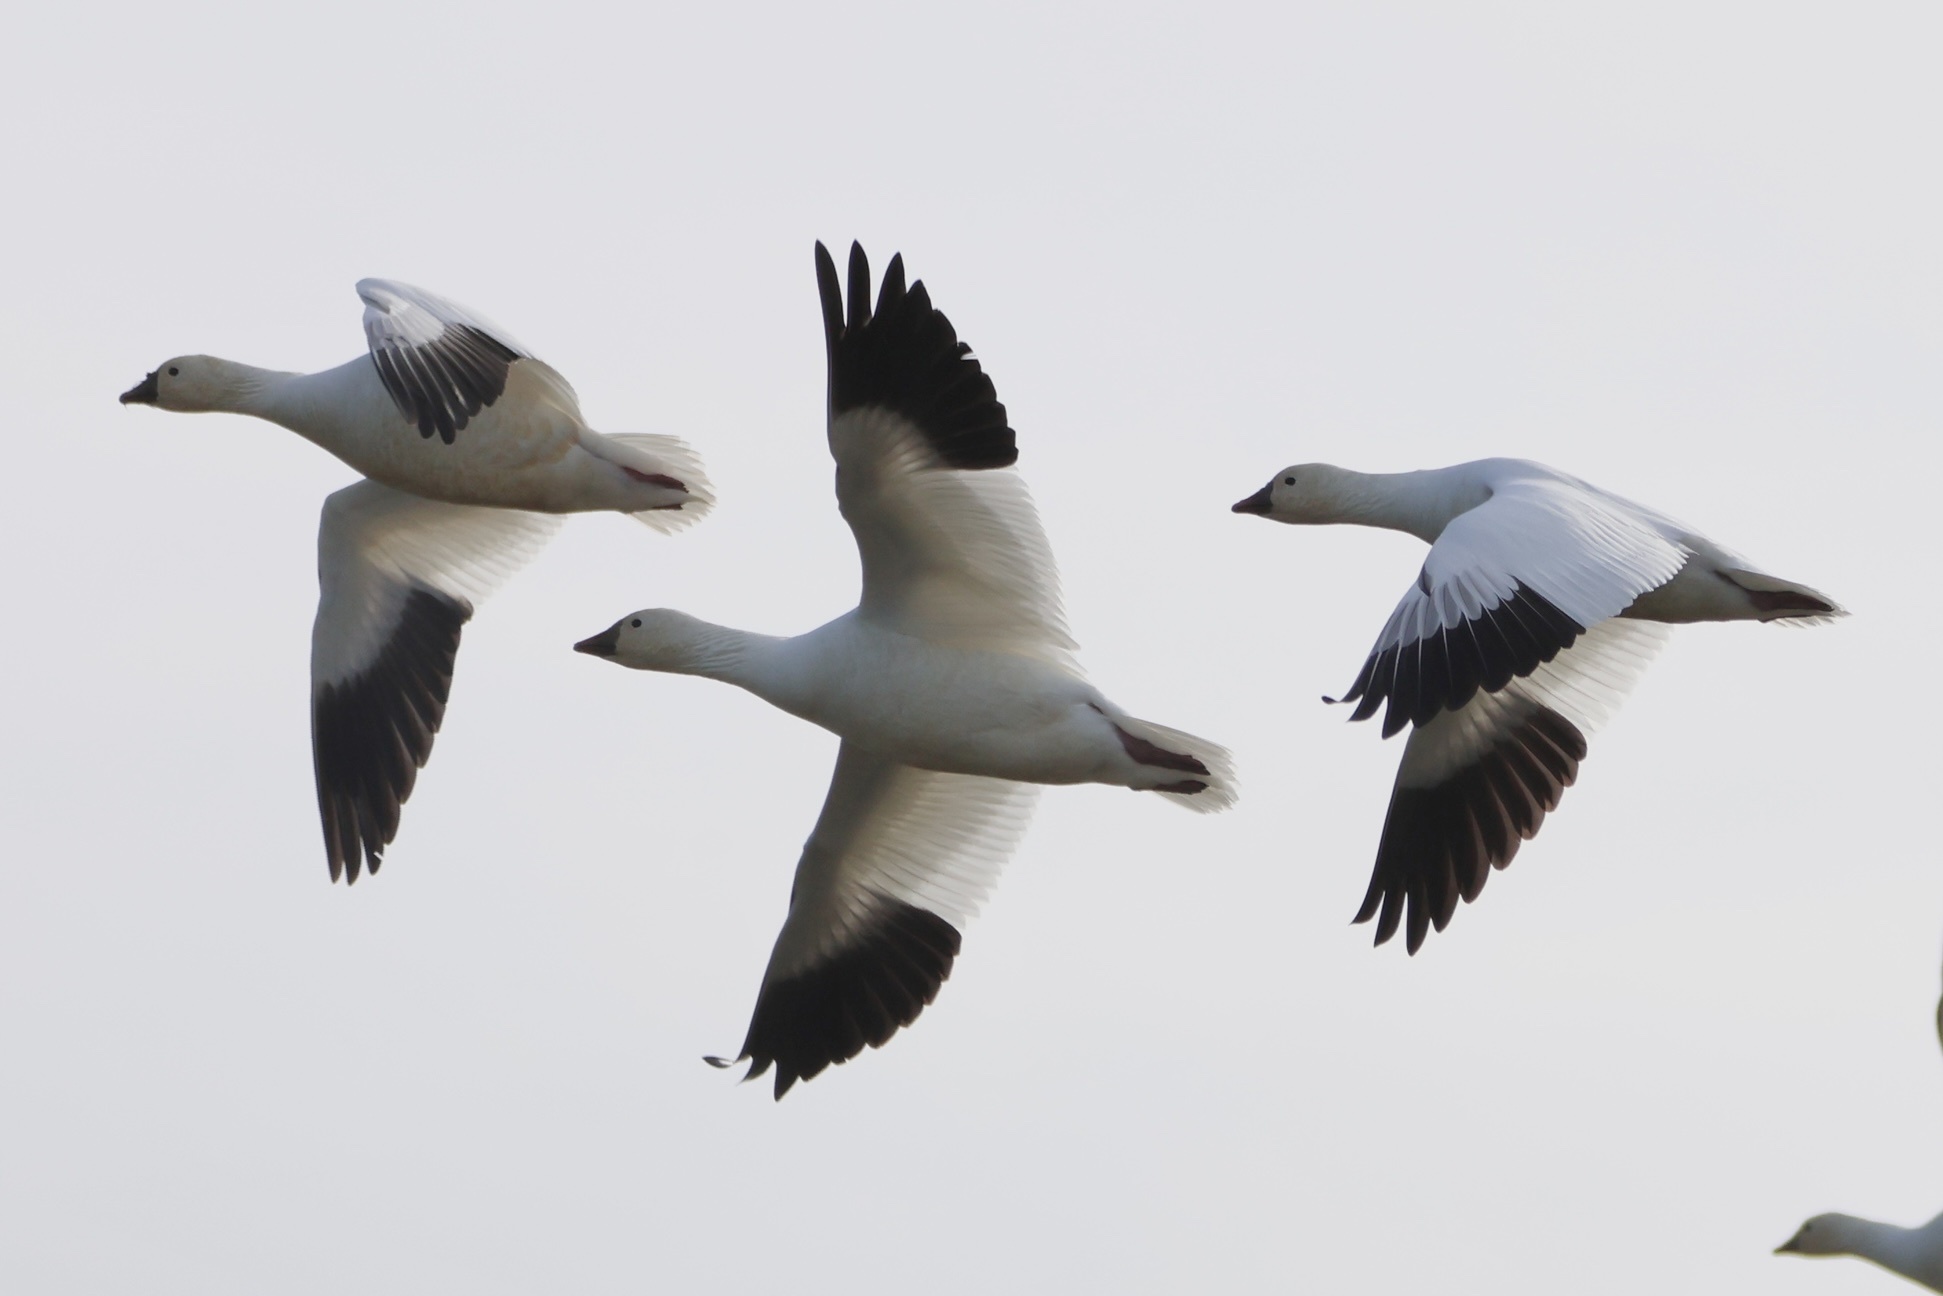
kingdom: Animalia
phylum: Chordata
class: Aves
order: Anseriformes
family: Anatidae
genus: Anser
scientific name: Anser rossii
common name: Ross's goose
